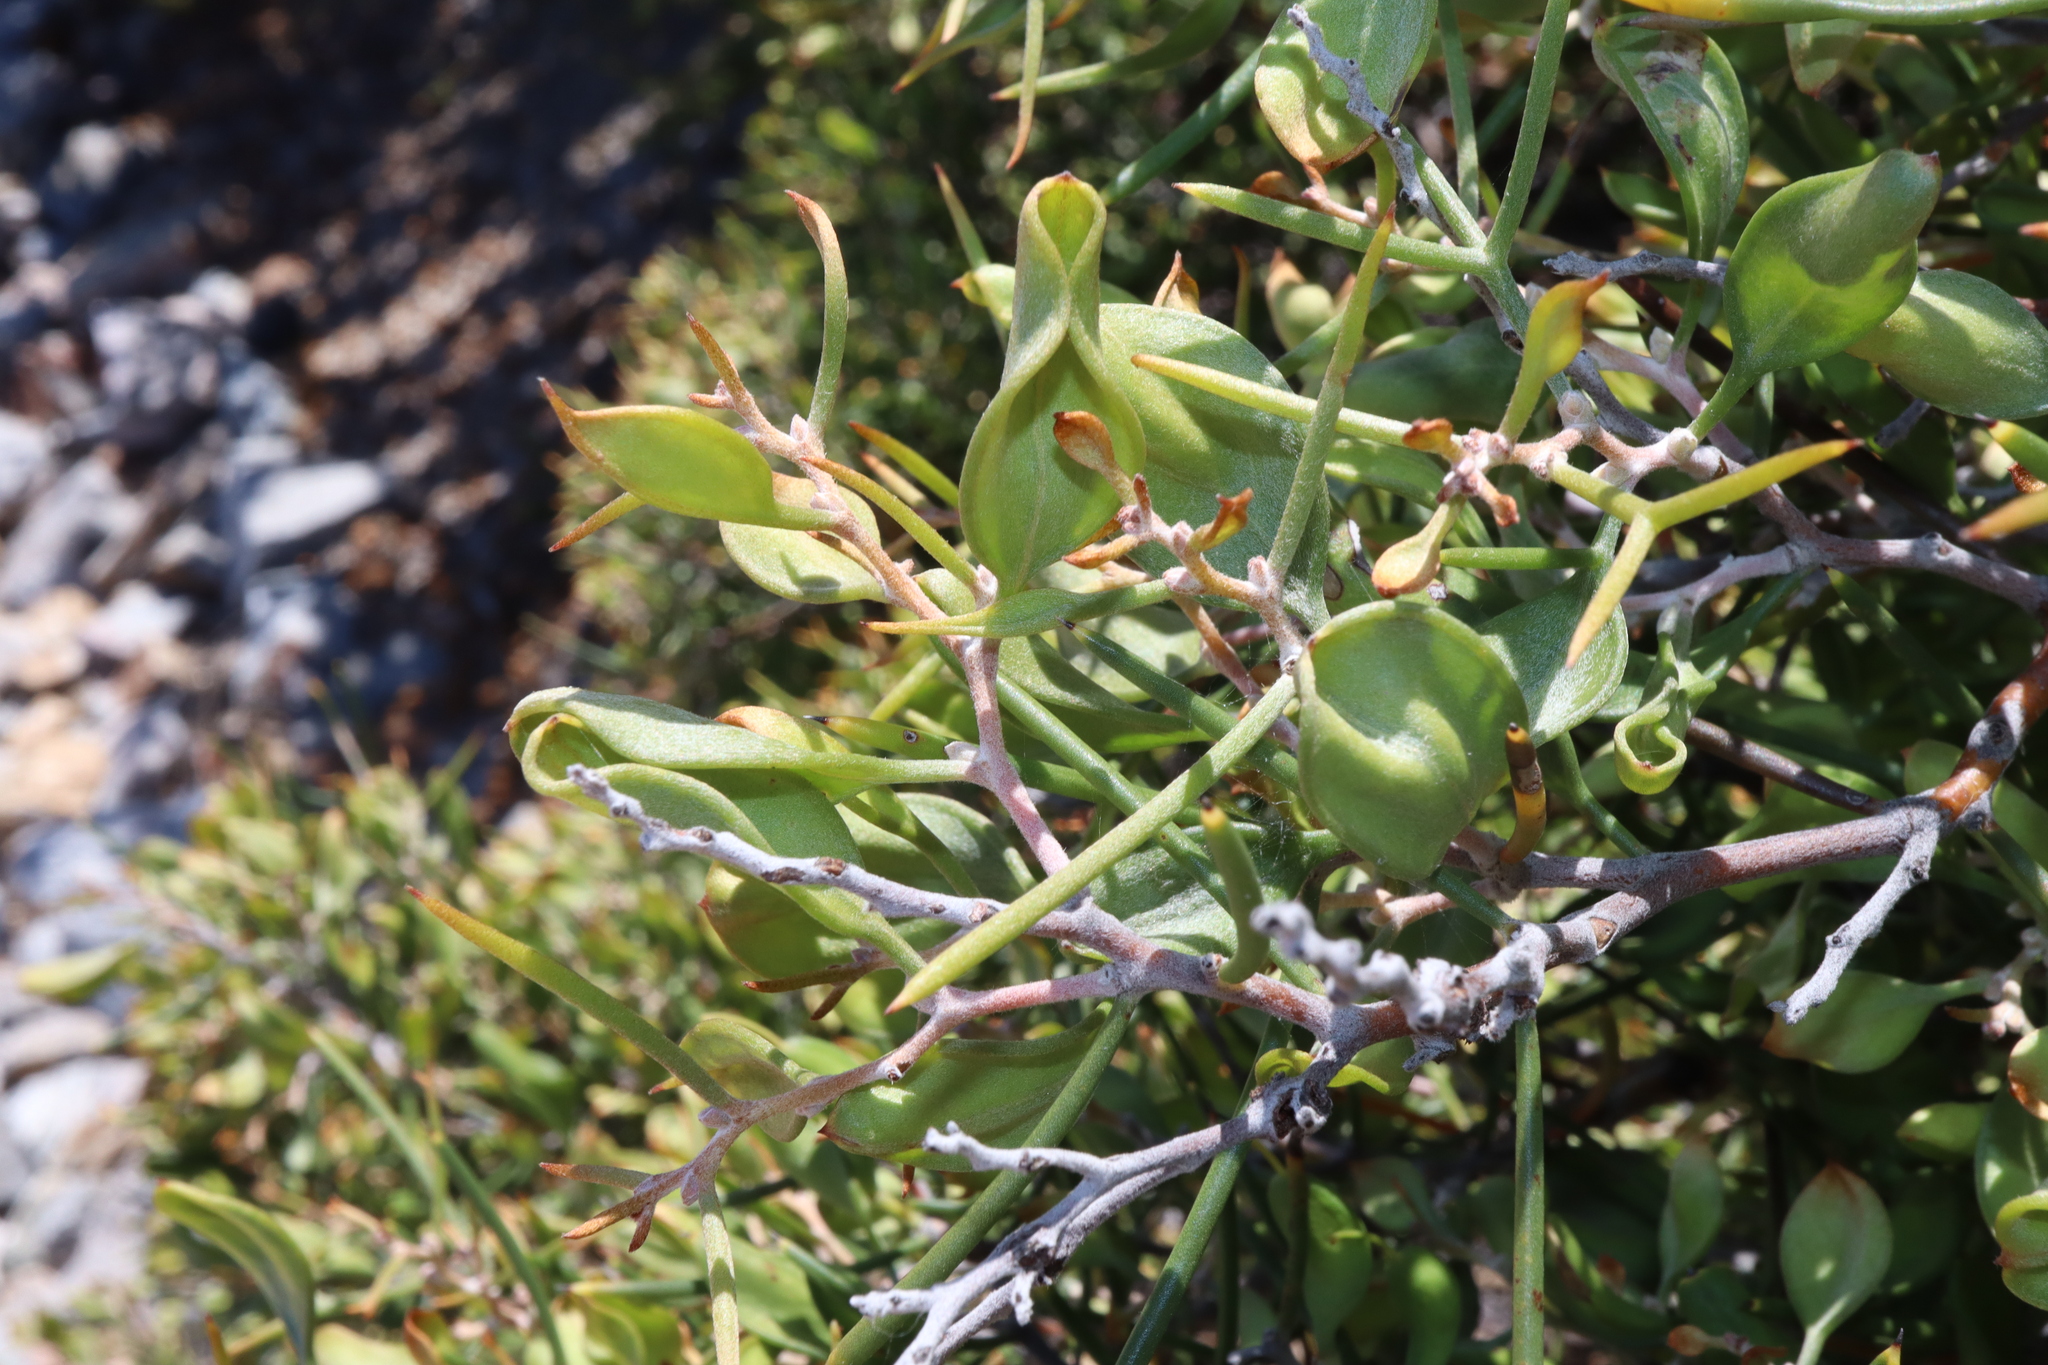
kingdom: Plantae
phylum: Tracheophyta
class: Magnoliopsida
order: Proteales
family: Proteaceae
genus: Hakea
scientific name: Hakea trifurcata
